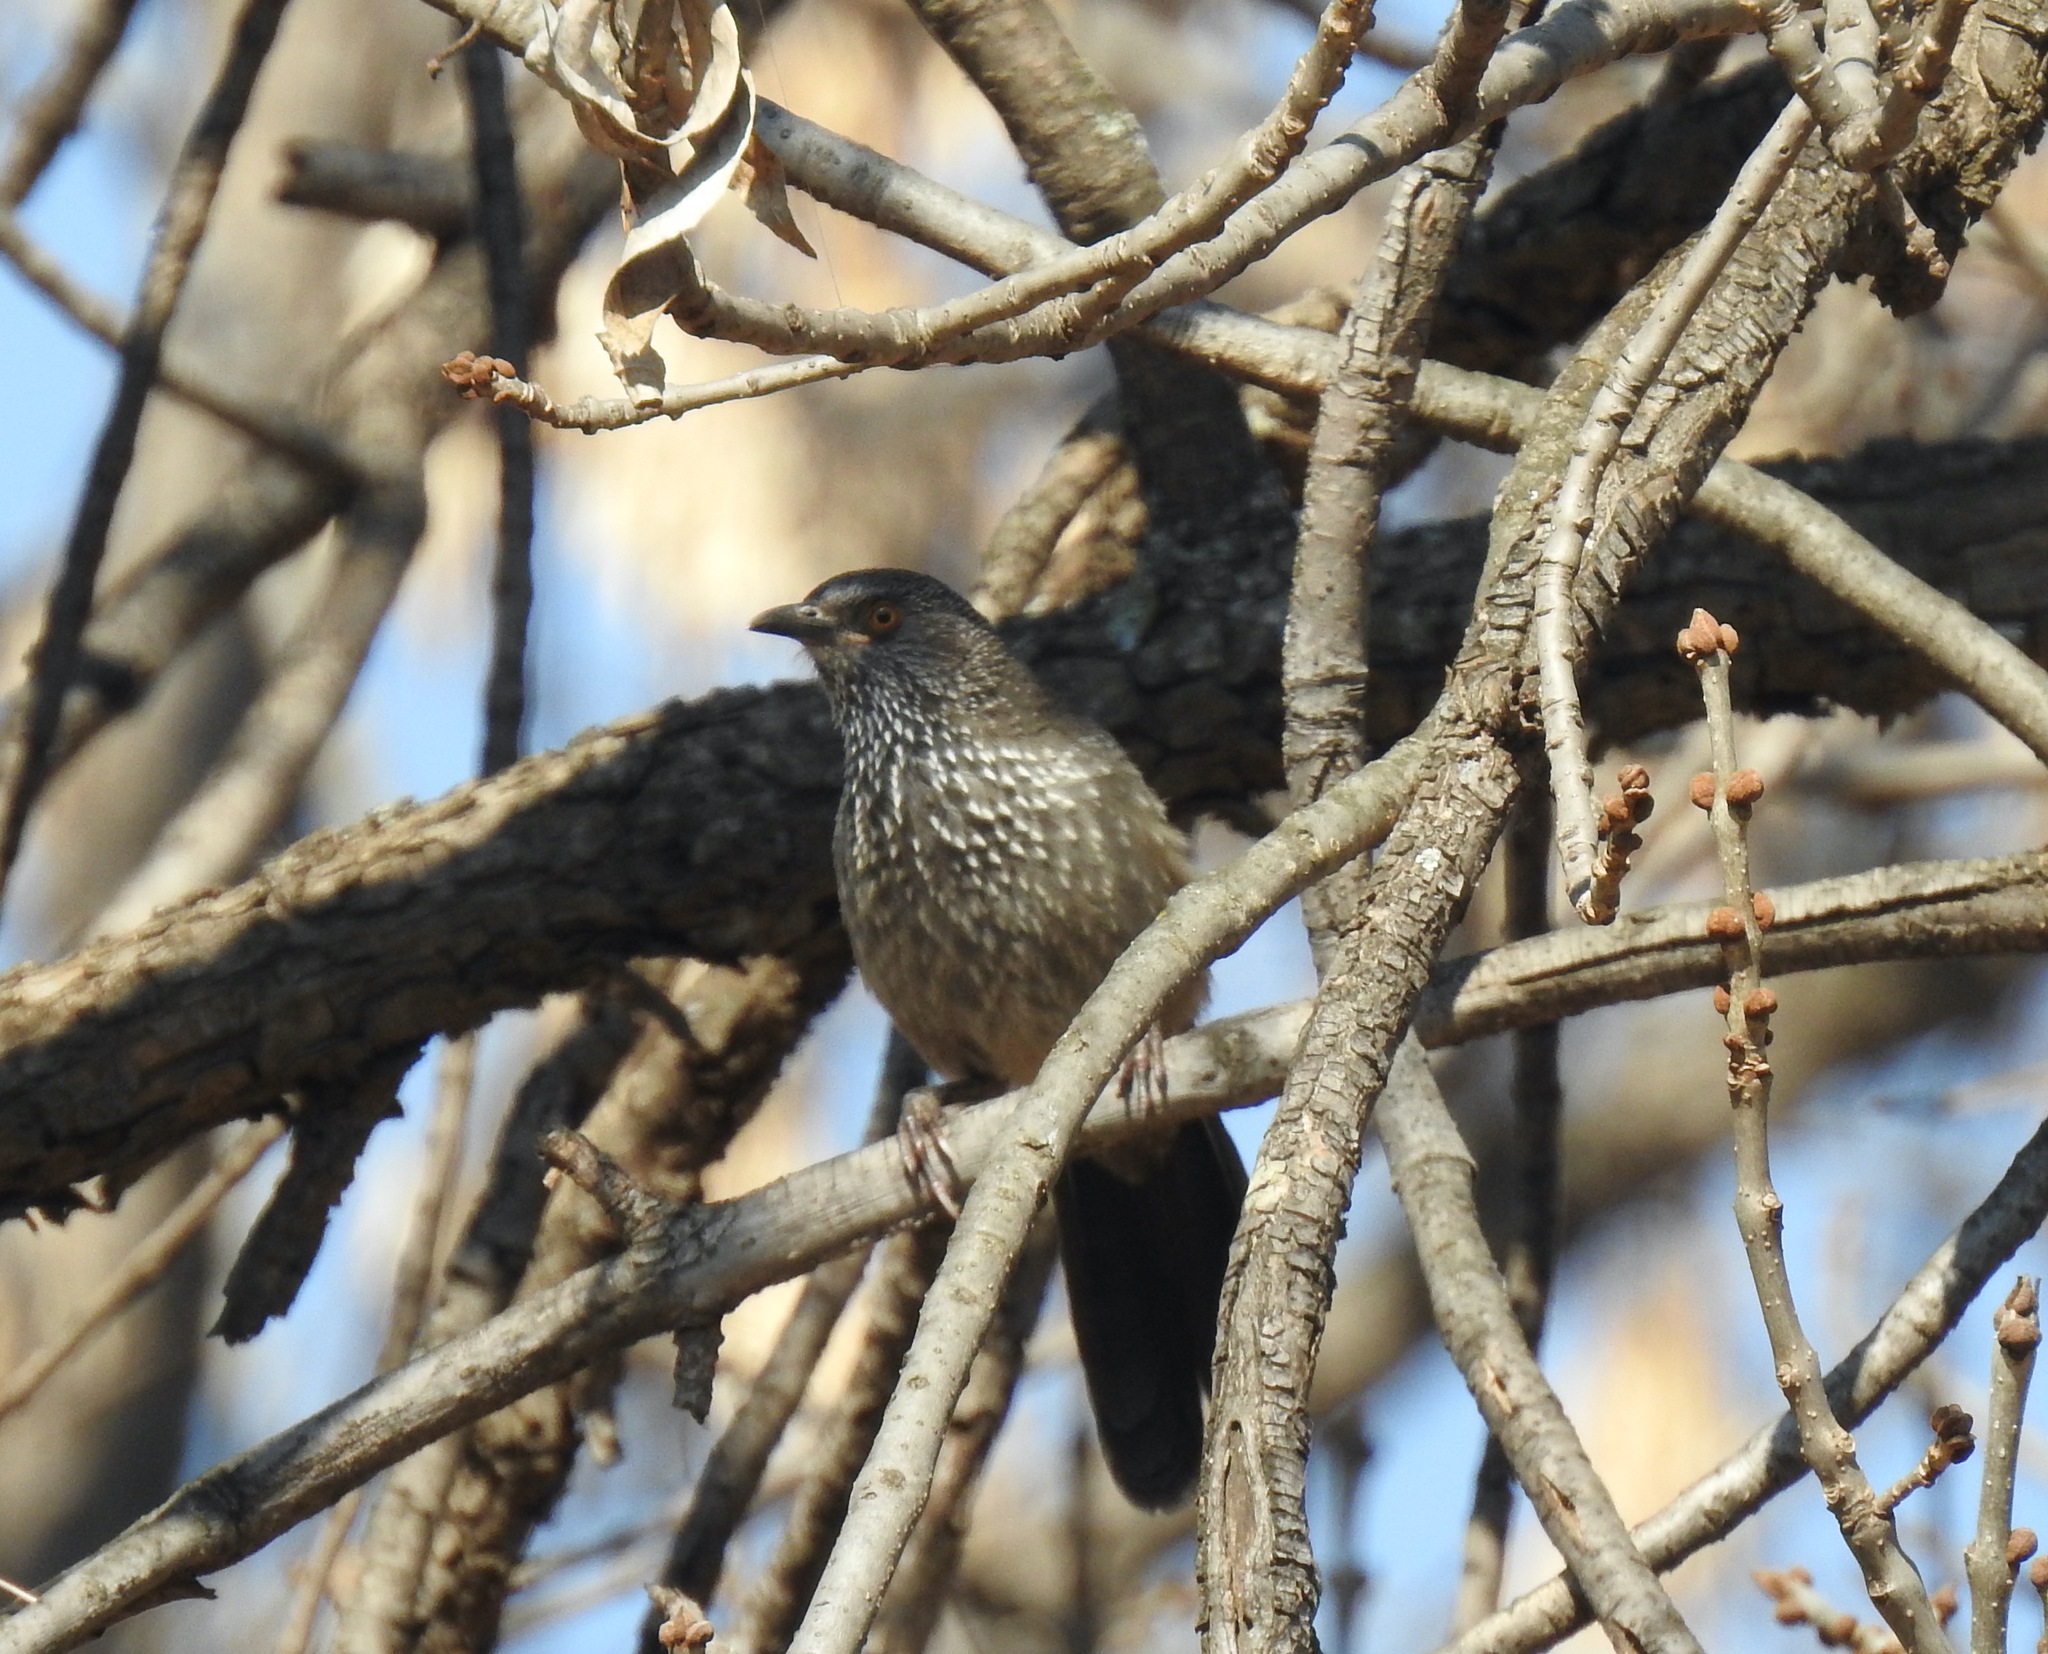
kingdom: Animalia
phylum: Chordata
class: Aves
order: Passeriformes
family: Leiothrichidae
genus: Turdoides
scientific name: Turdoides jardineii
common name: Arrow-marked babbler
